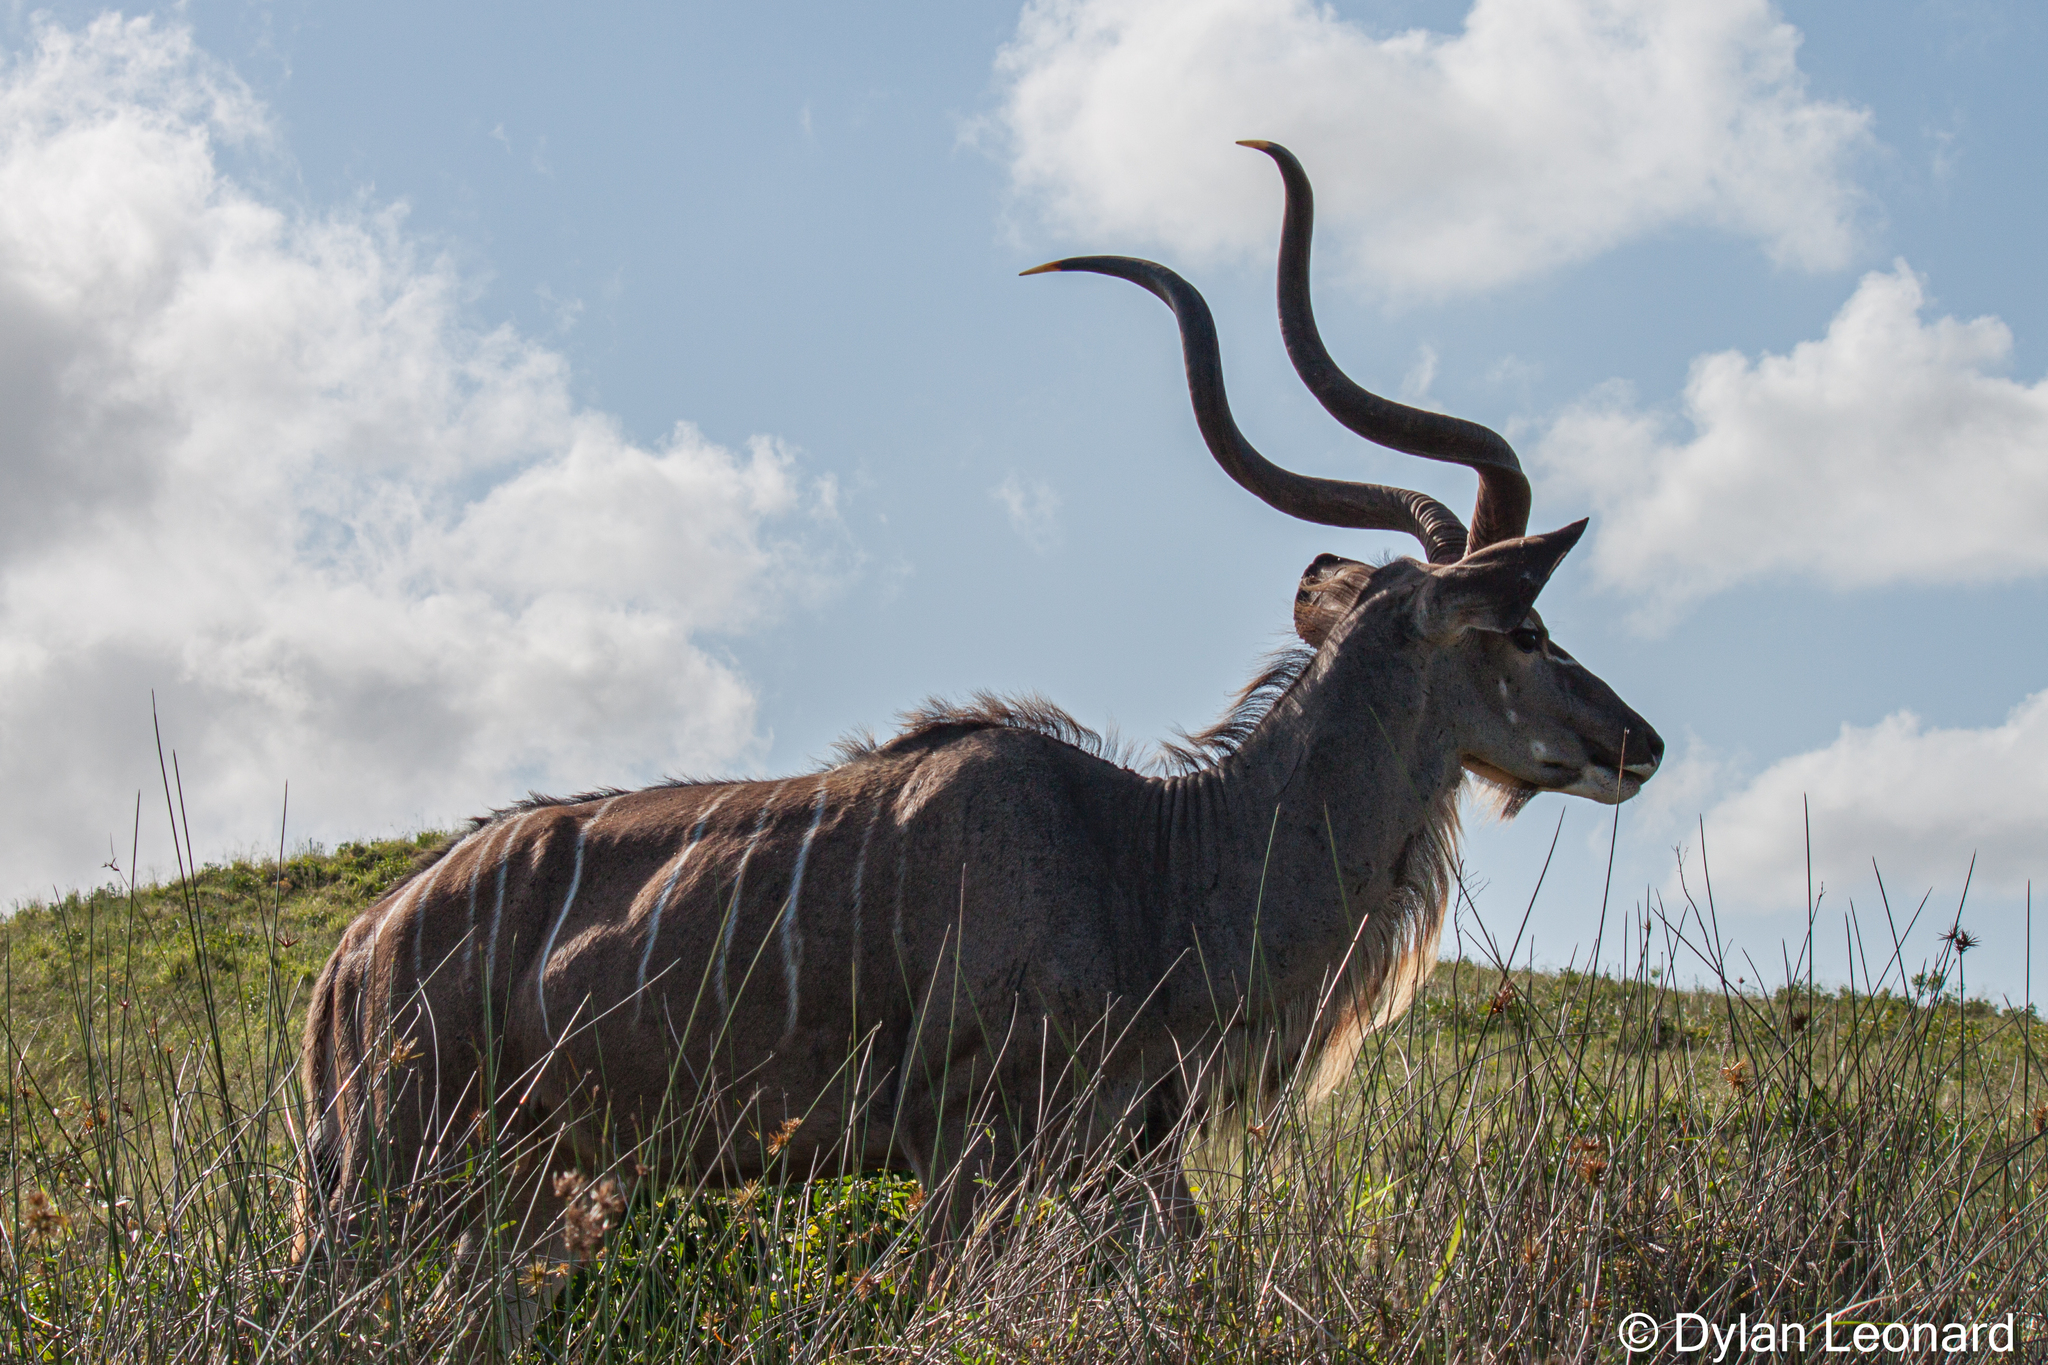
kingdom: Animalia
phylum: Chordata
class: Mammalia
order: Artiodactyla
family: Bovidae
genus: Tragelaphus
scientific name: Tragelaphus strepsiceros
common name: Greater kudu
